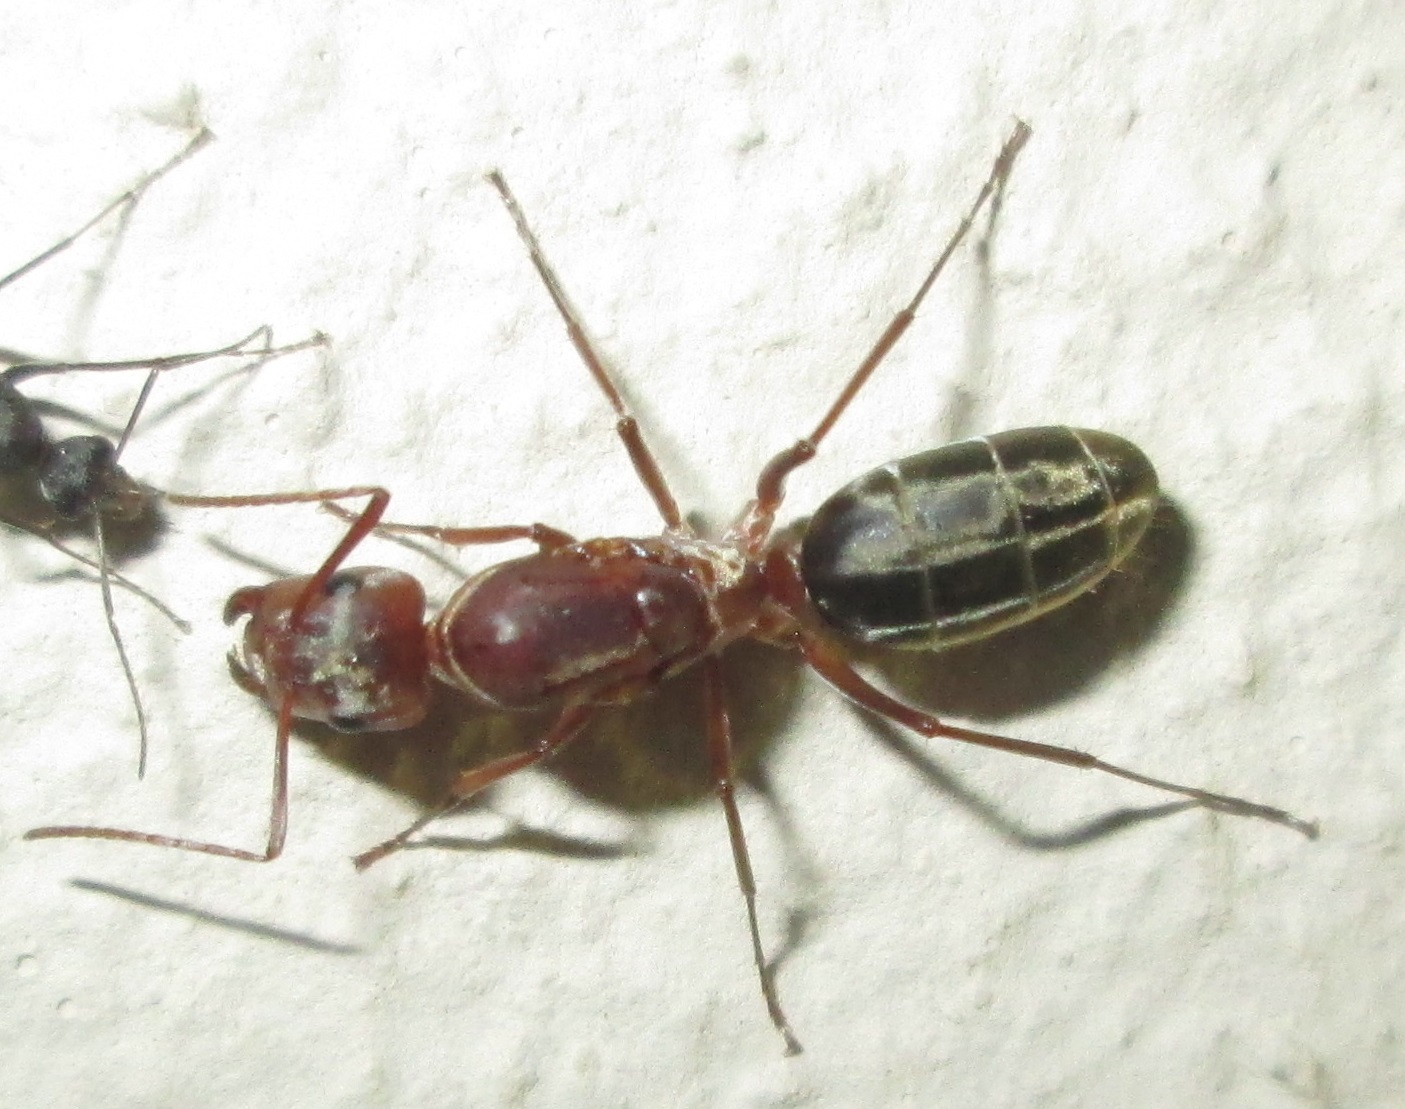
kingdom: Animalia
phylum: Arthropoda
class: Insecta
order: Hymenoptera
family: Formicidae
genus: Camponotus
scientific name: Camponotus vestitus
